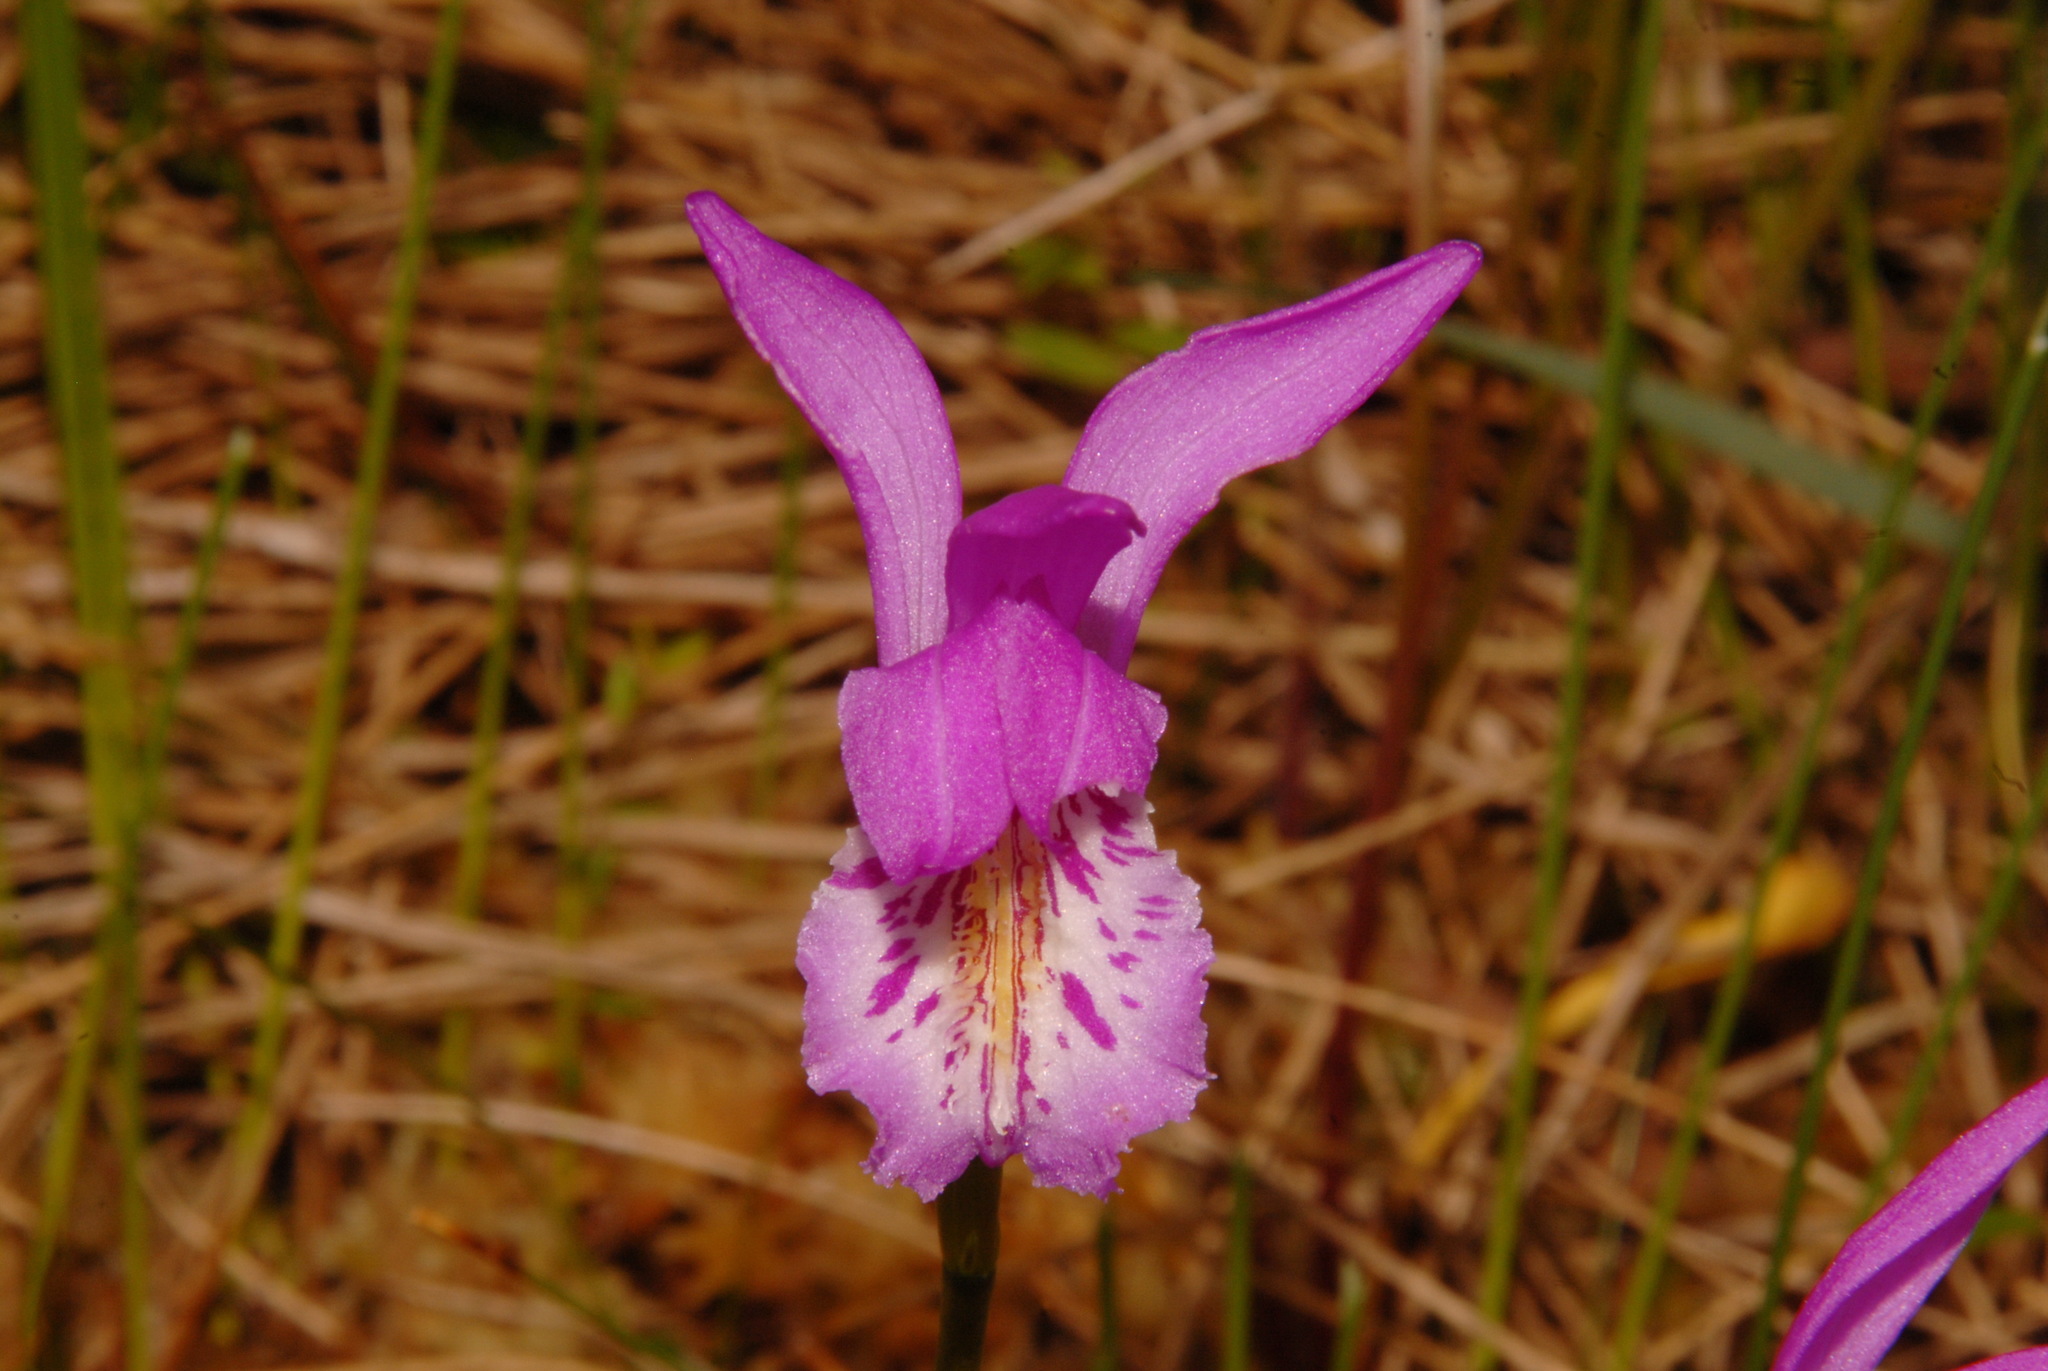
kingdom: Plantae
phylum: Tracheophyta
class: Liliopsida
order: Asparagales
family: Orchidaceae
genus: Arethusa
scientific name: Arethusa bulbosa
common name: Arethusa
